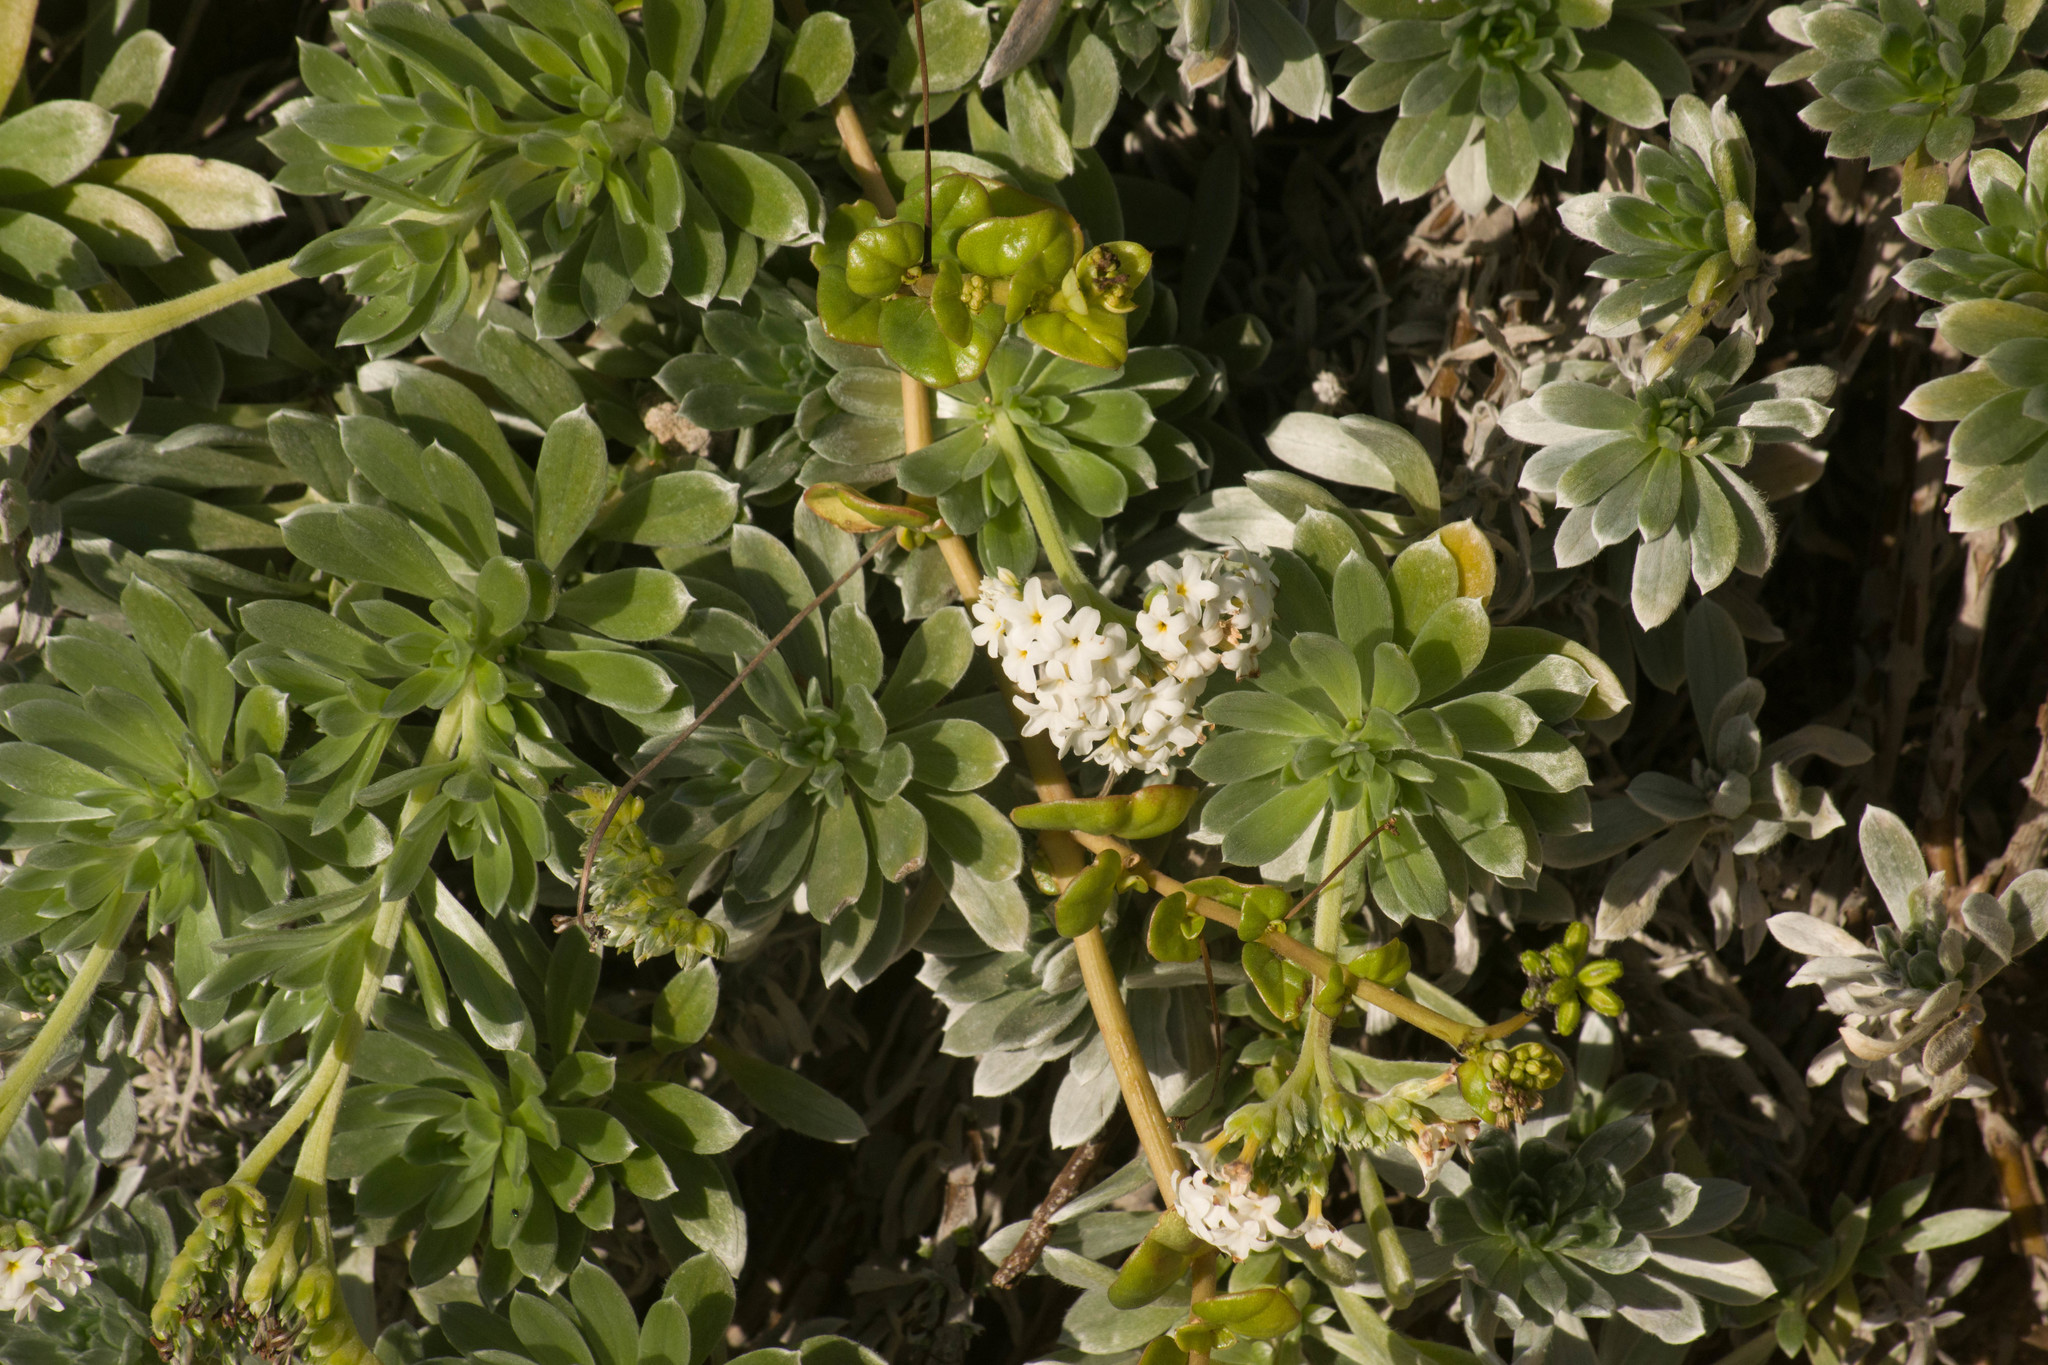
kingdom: Plantae
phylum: Tracheophyta
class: Magnoliopsida
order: Boraginales
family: Heliotropiaceae
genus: Heliotropium
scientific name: Heliotropium anomalum
